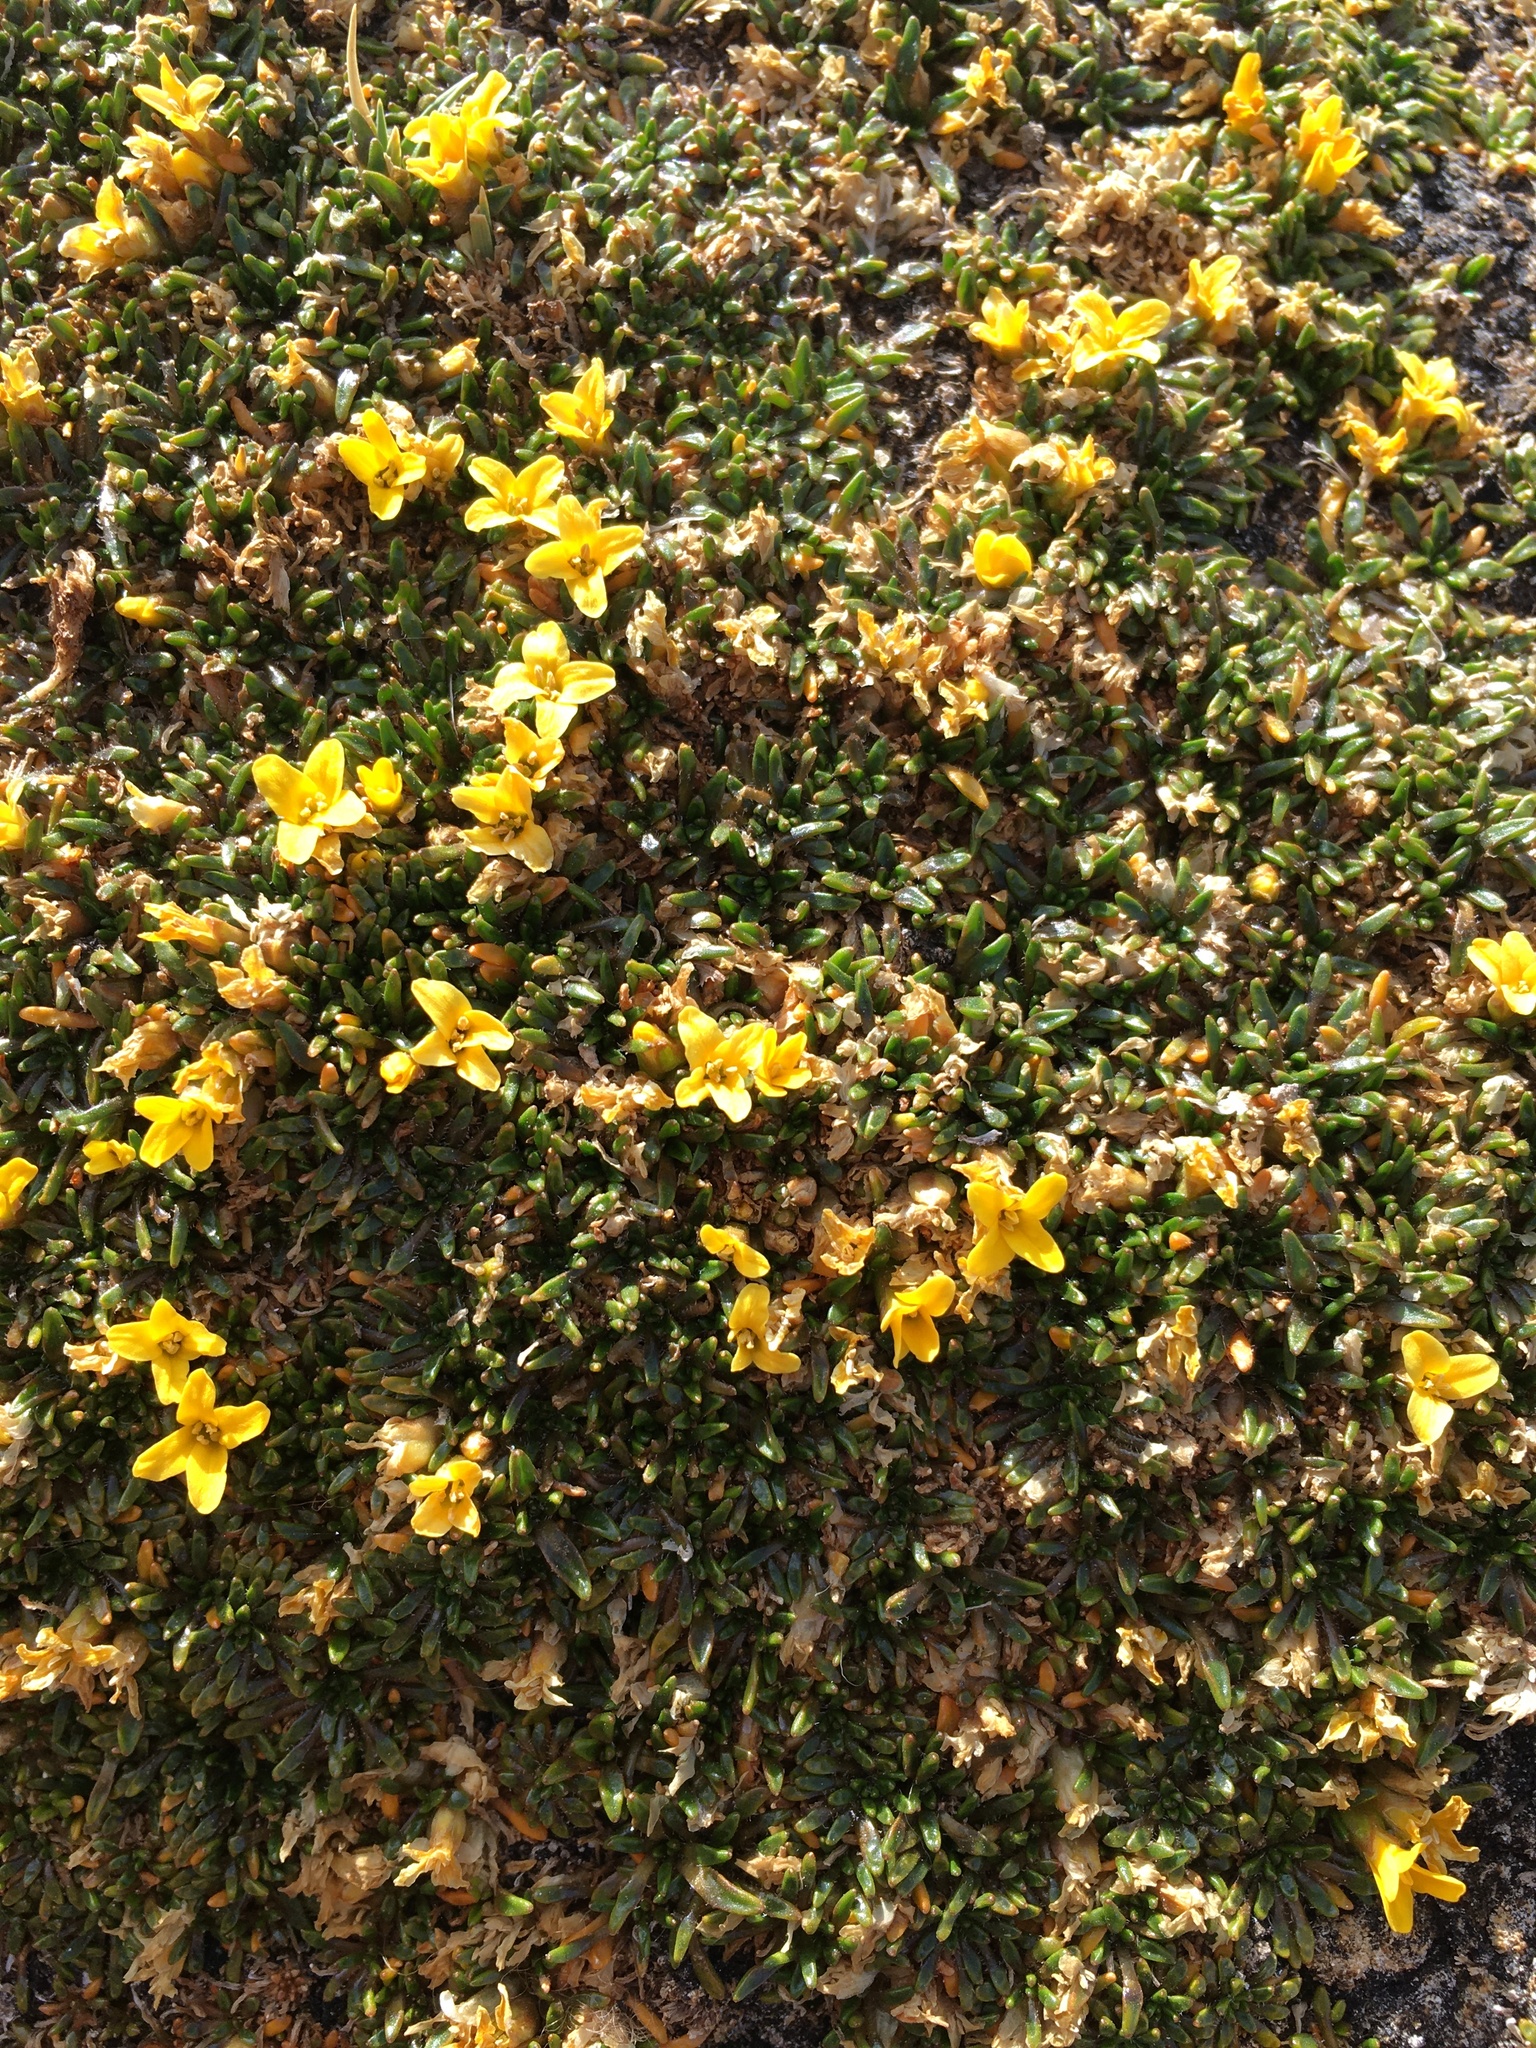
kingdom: Plantae
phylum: Tracheophyta
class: Magnoliopsida
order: Brassicales
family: Brassicaceae
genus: Petroravenia
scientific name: Petroravenia friesii
